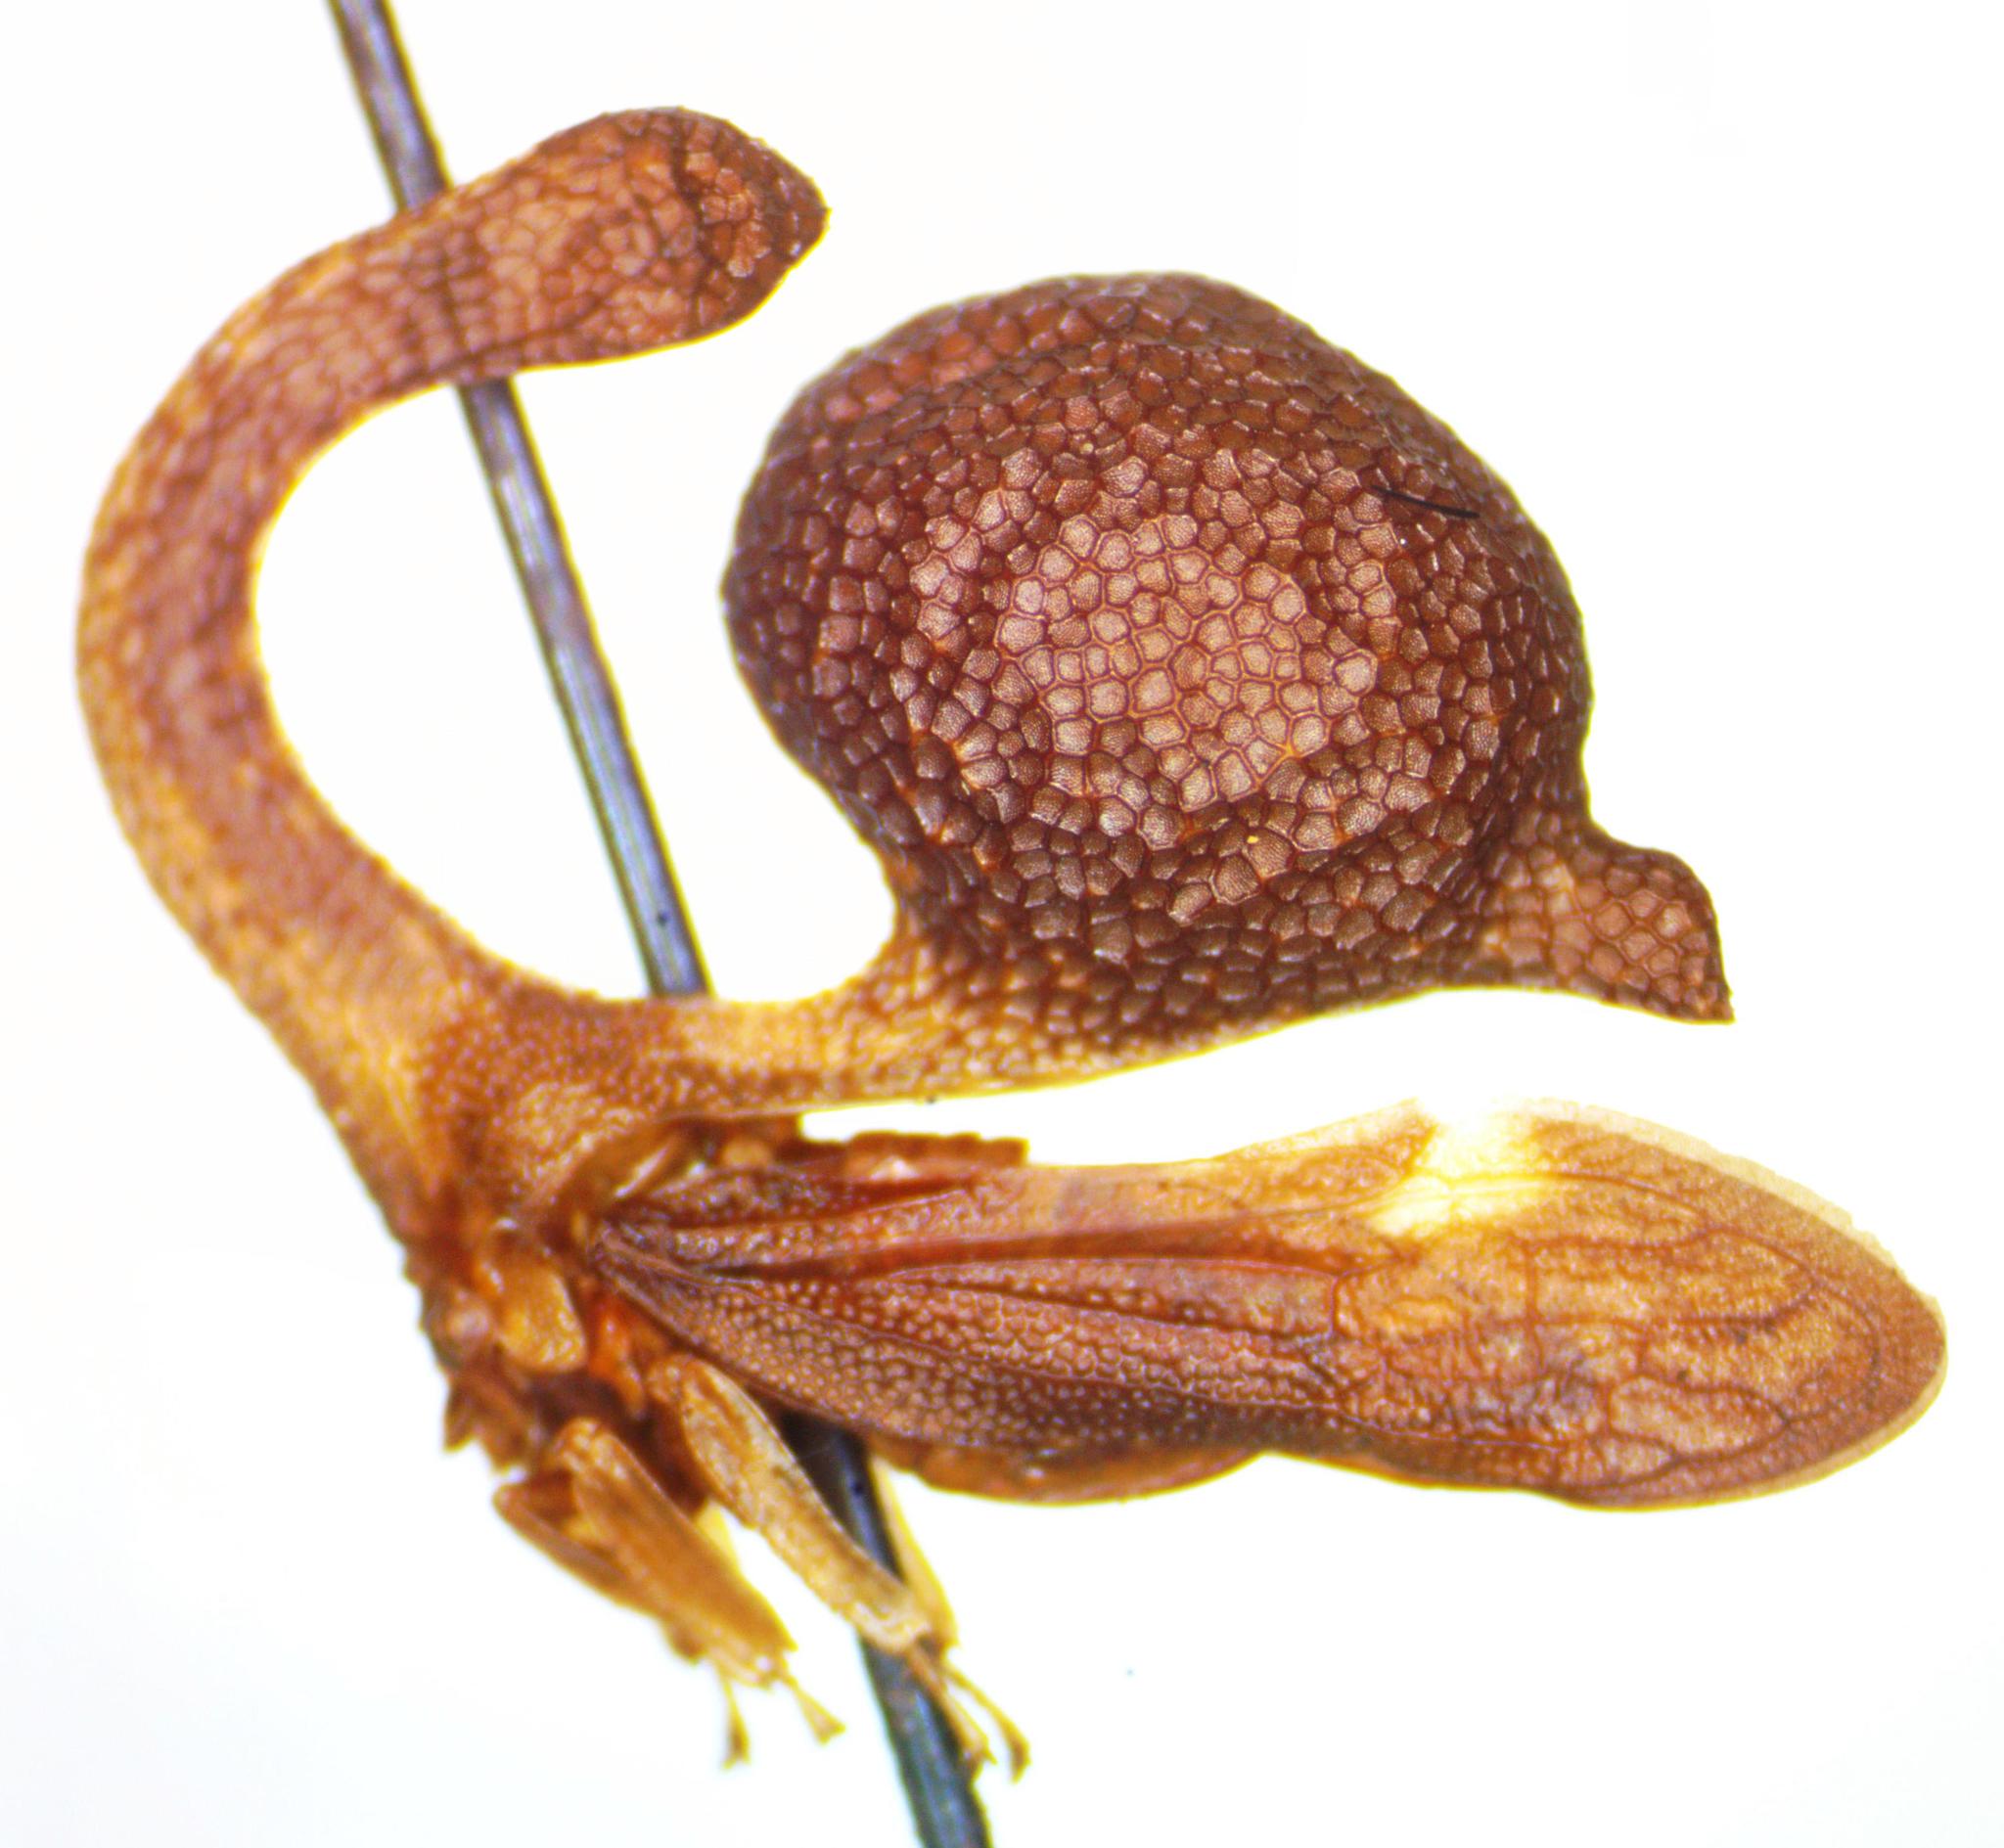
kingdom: Animalia
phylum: Arthropoda
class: Insecta
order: Hemiptera
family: Membracidae
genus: Cladonota
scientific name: Cladonota inflatus
